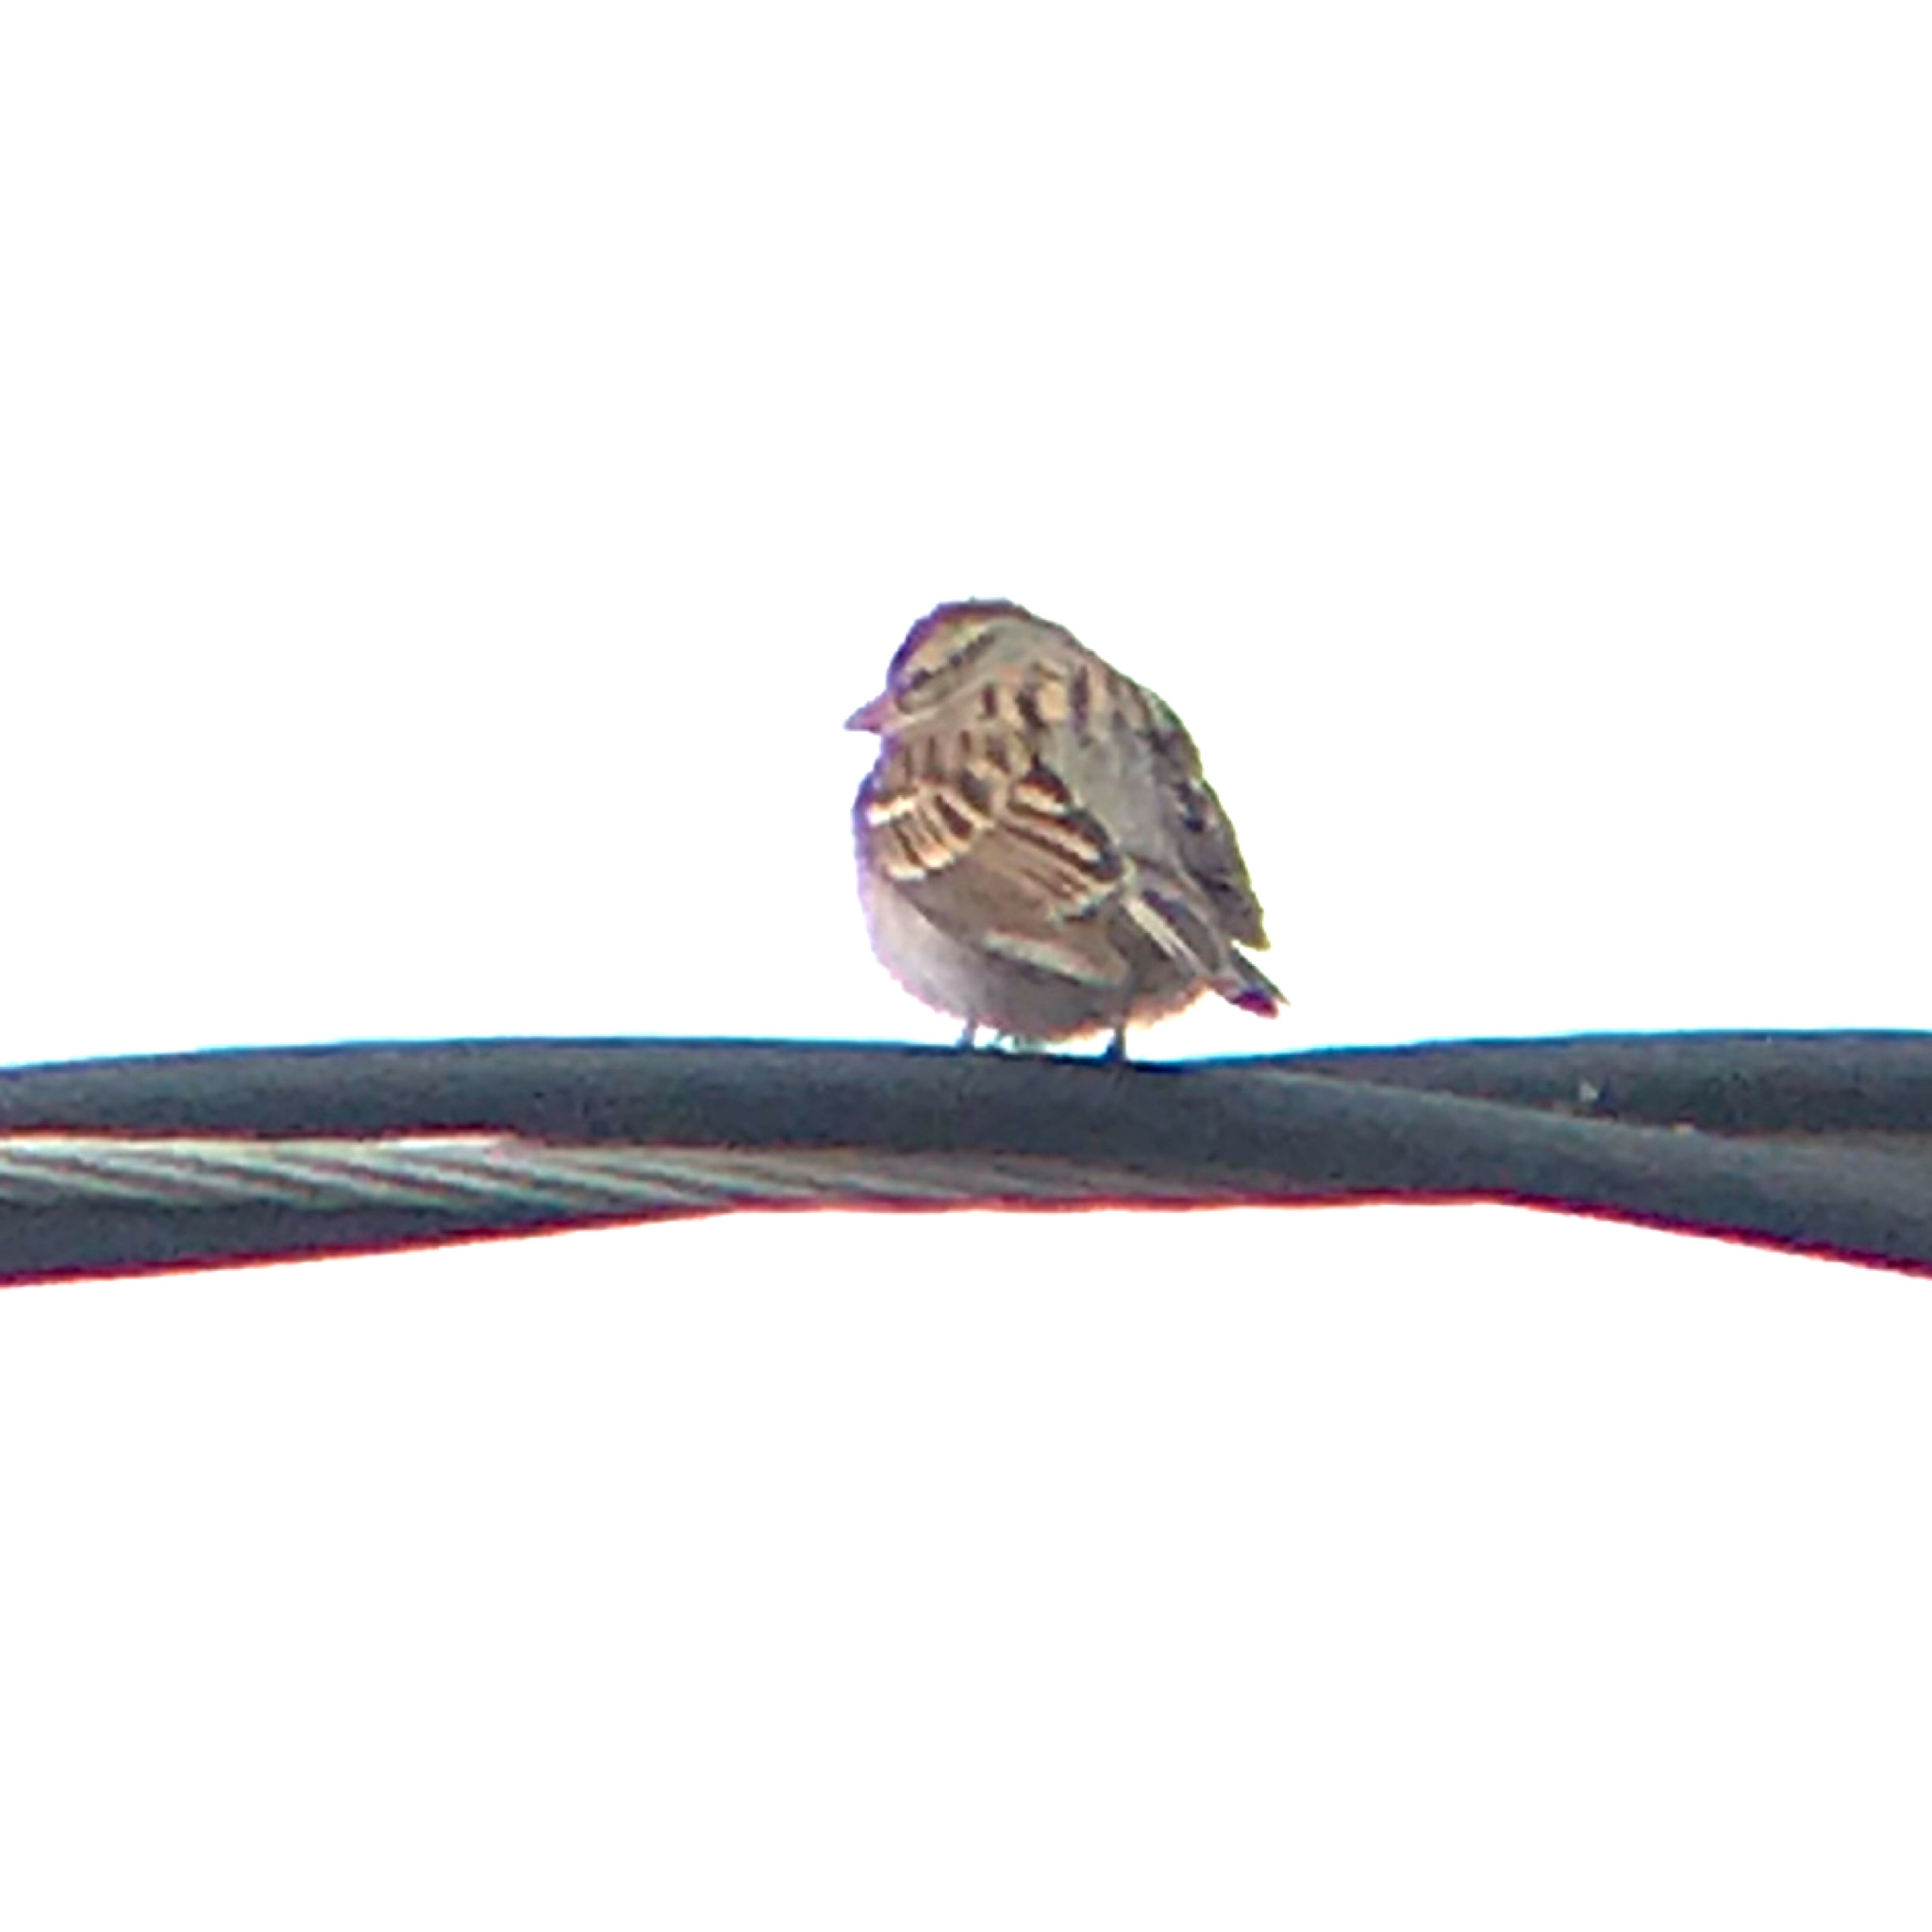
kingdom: Animalia
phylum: Chordata
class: Aves
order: Passeriformes
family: Passerellidae
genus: Spizella
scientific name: Spizella passerina
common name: Chipping sparrow
